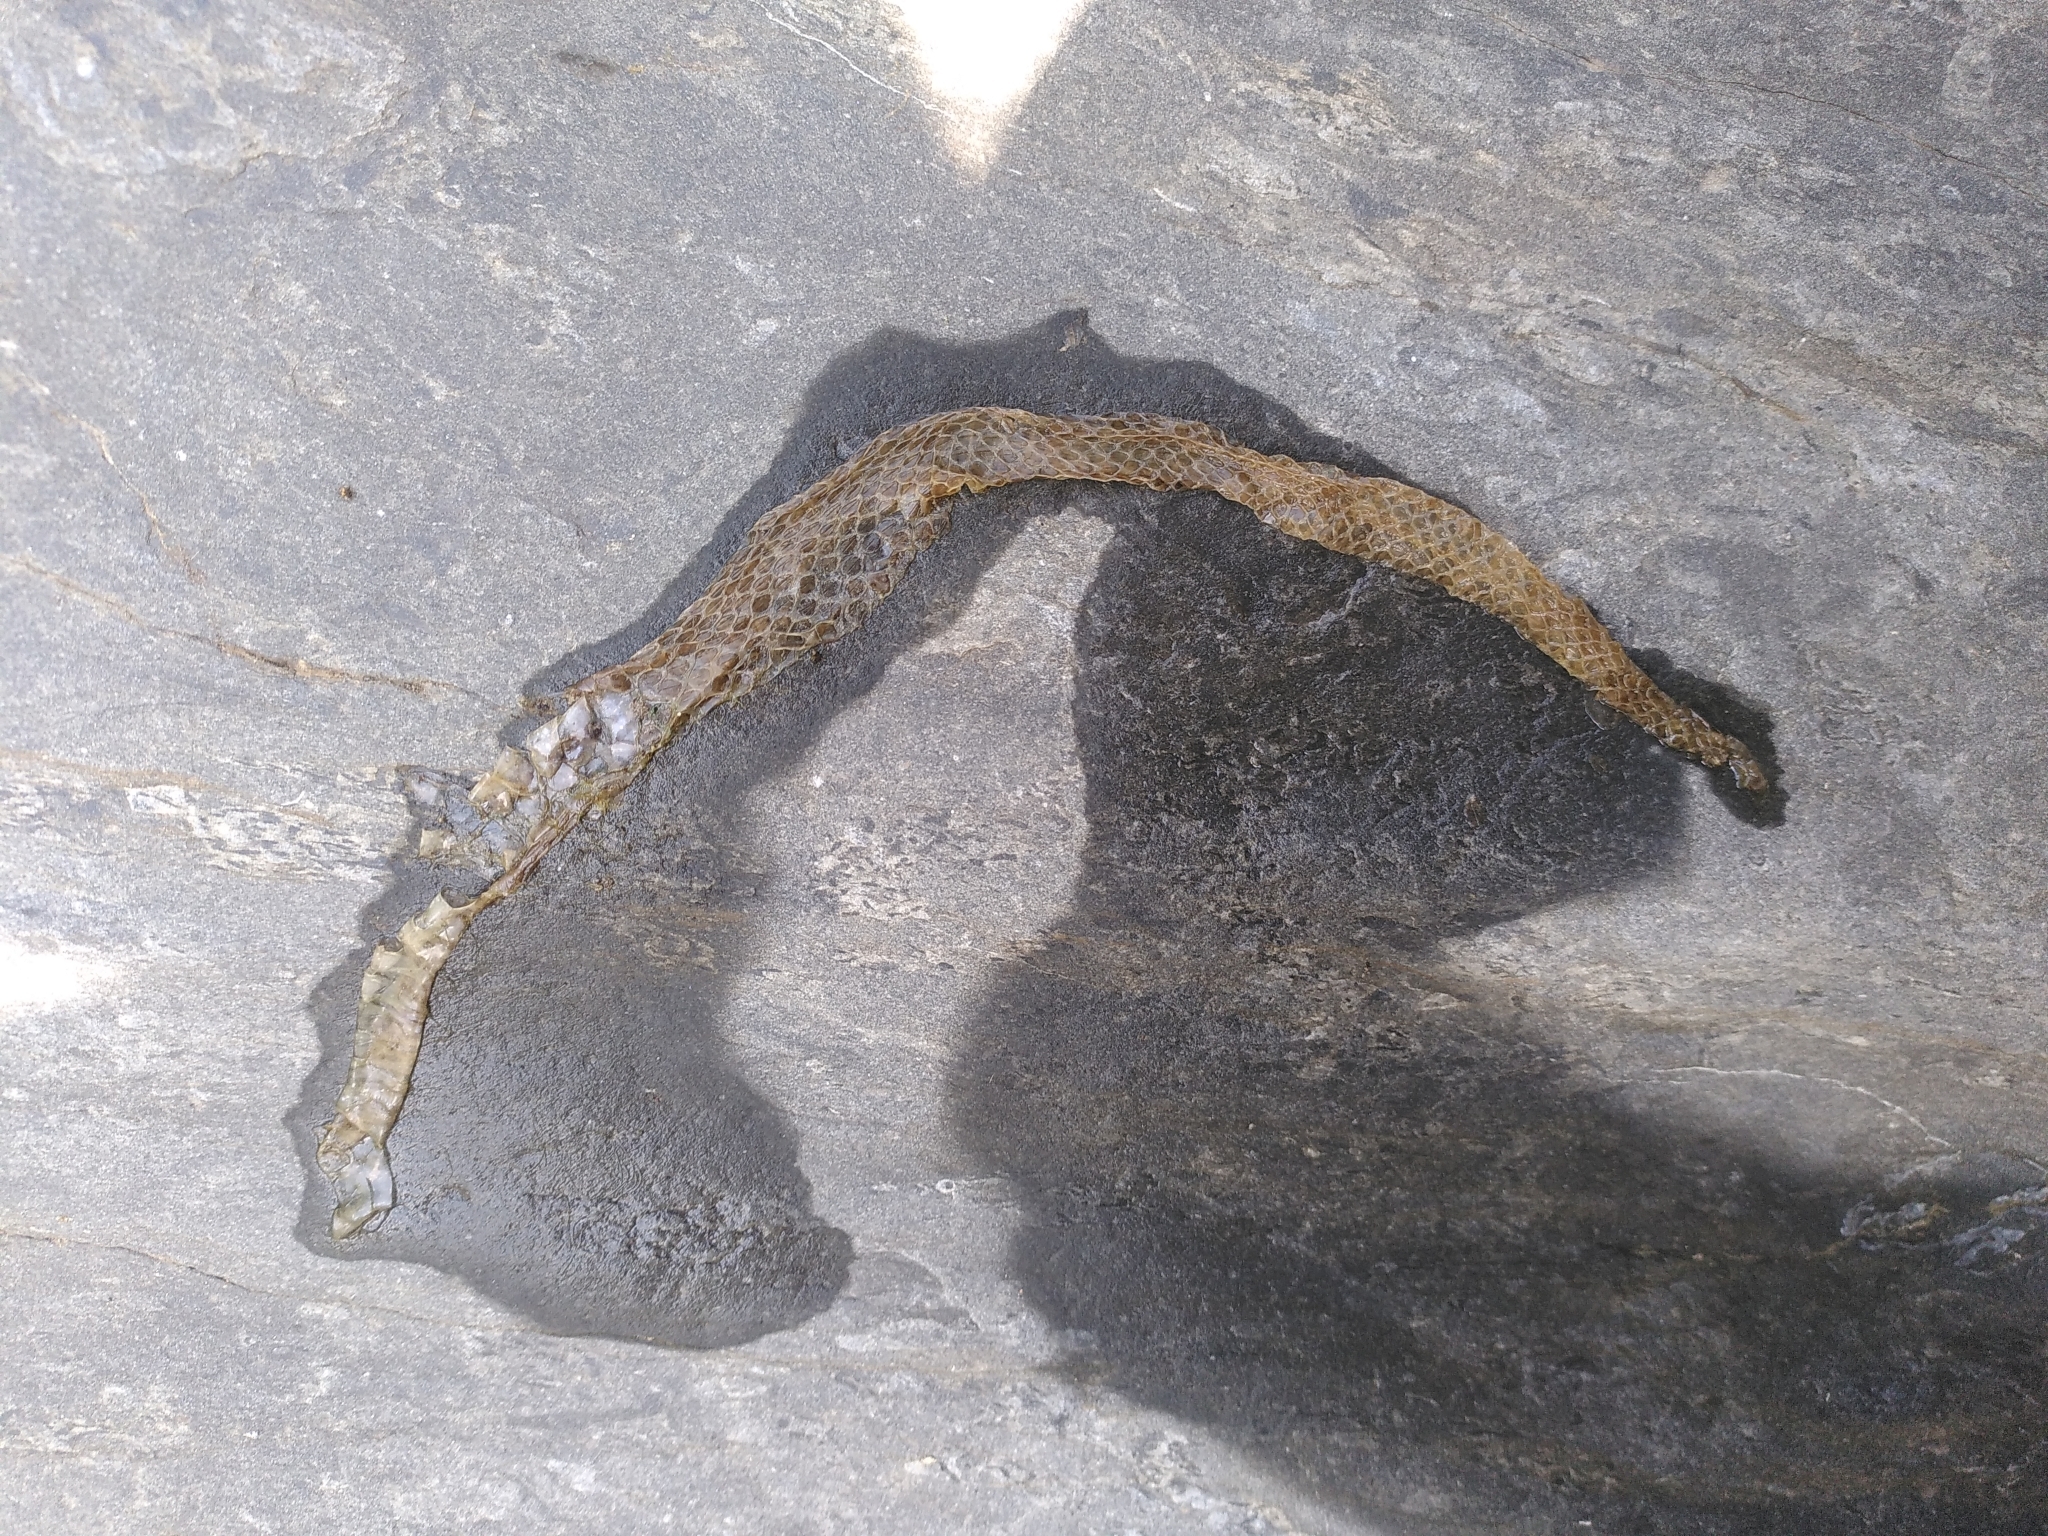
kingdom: Animalia
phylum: Chordata
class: Squamata
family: Colubridae
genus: Natrix
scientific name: Natrix maura
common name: Viperine water snake
